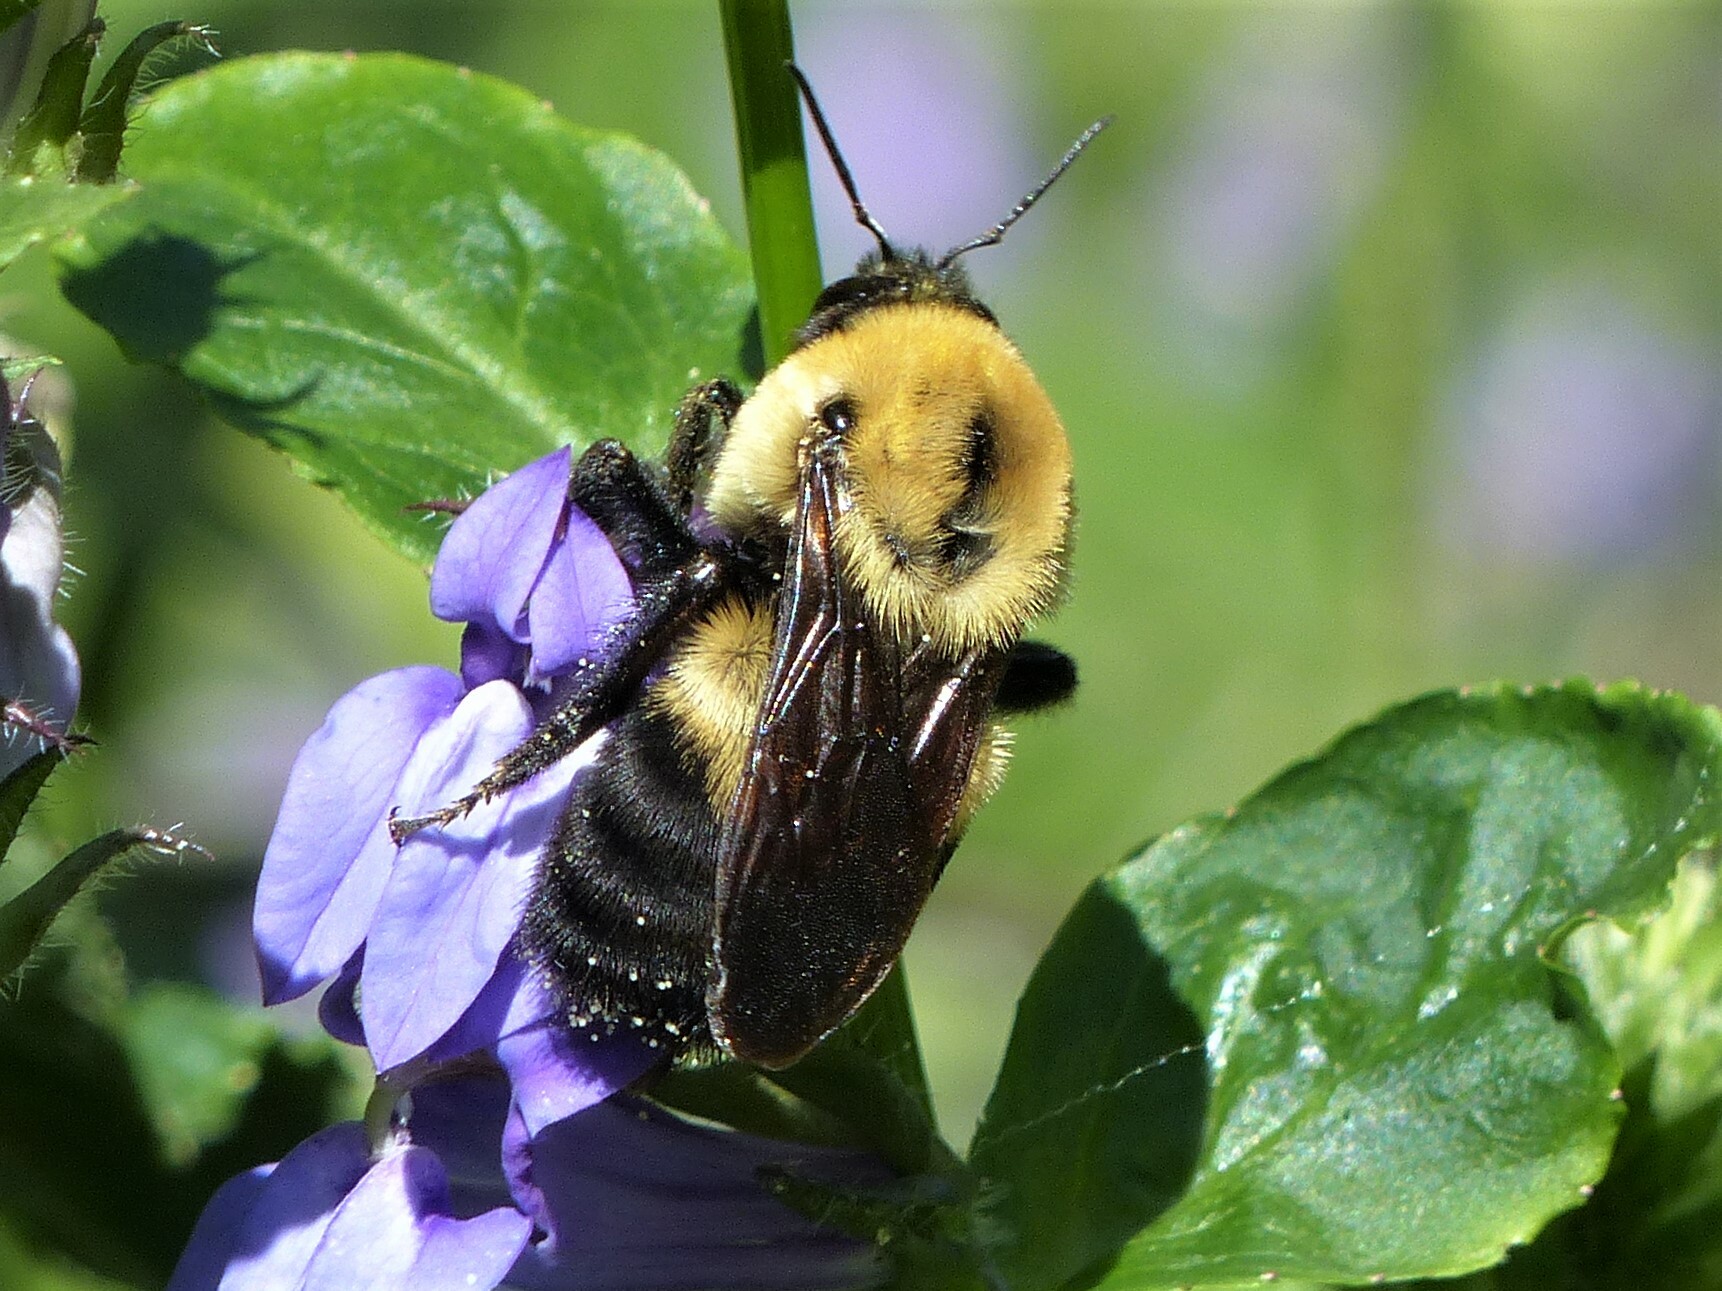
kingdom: Animalia
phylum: Arthropoda
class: Insecta
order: Hymenoptera
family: Apidae
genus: Bombus
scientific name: Bombus griseocollis
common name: Brown-belted bumble bee
